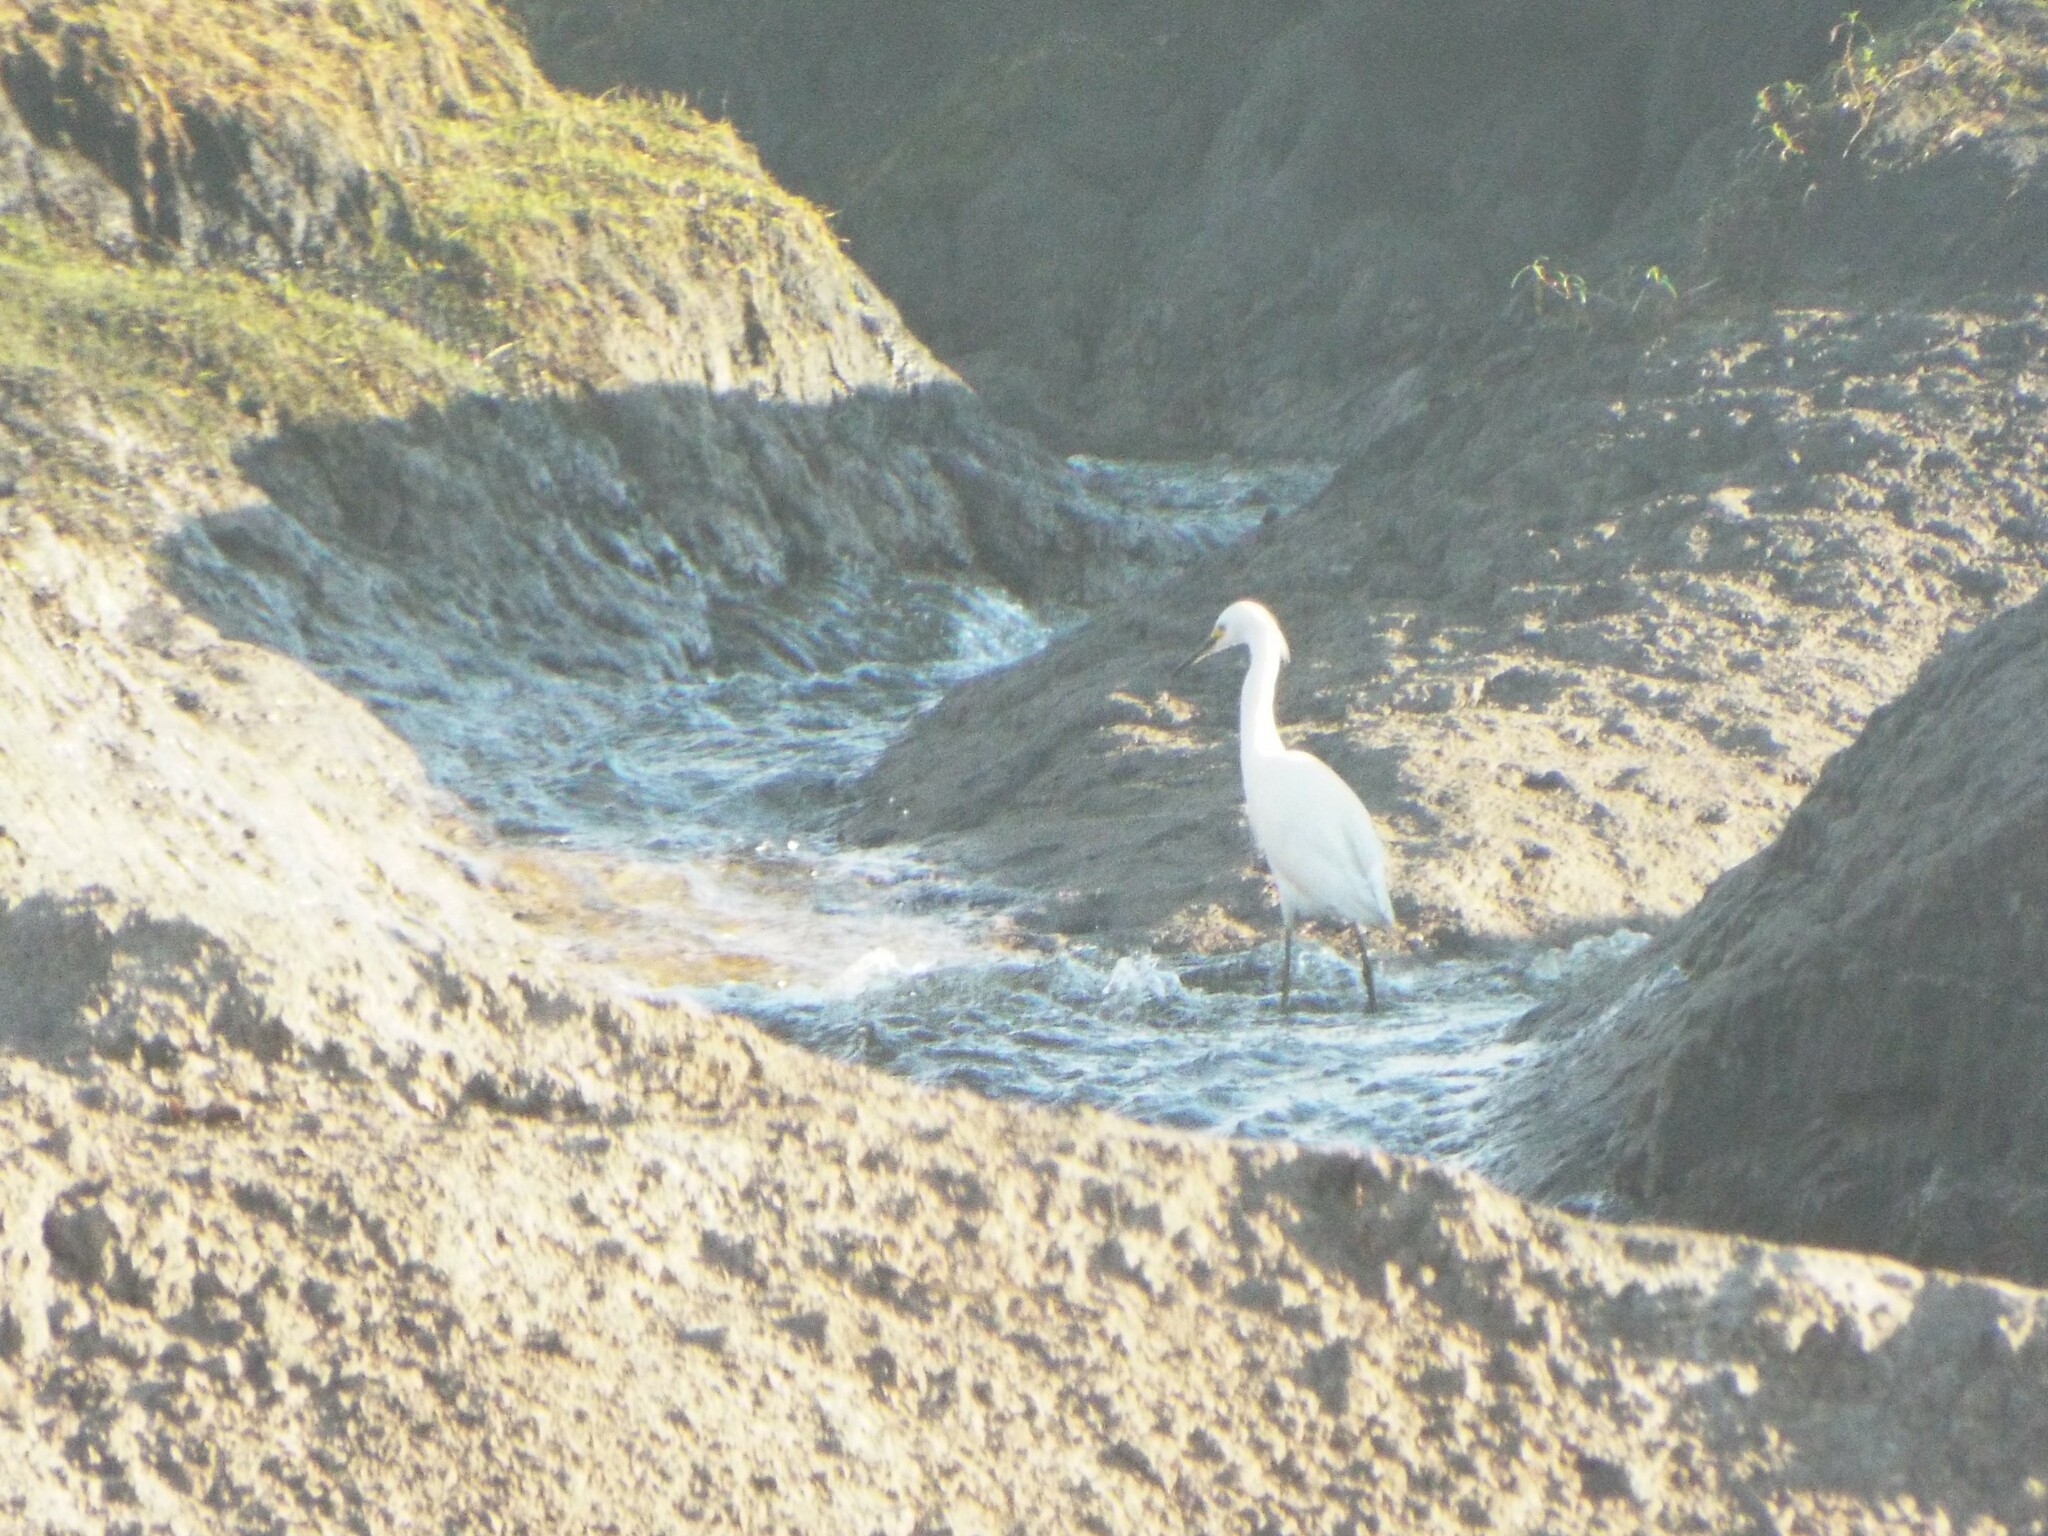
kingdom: Animalia
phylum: Chordata
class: Aves
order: Pelecaniformes
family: Ardeidae
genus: Egretta
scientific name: Egretta thula
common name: Snowy egret
